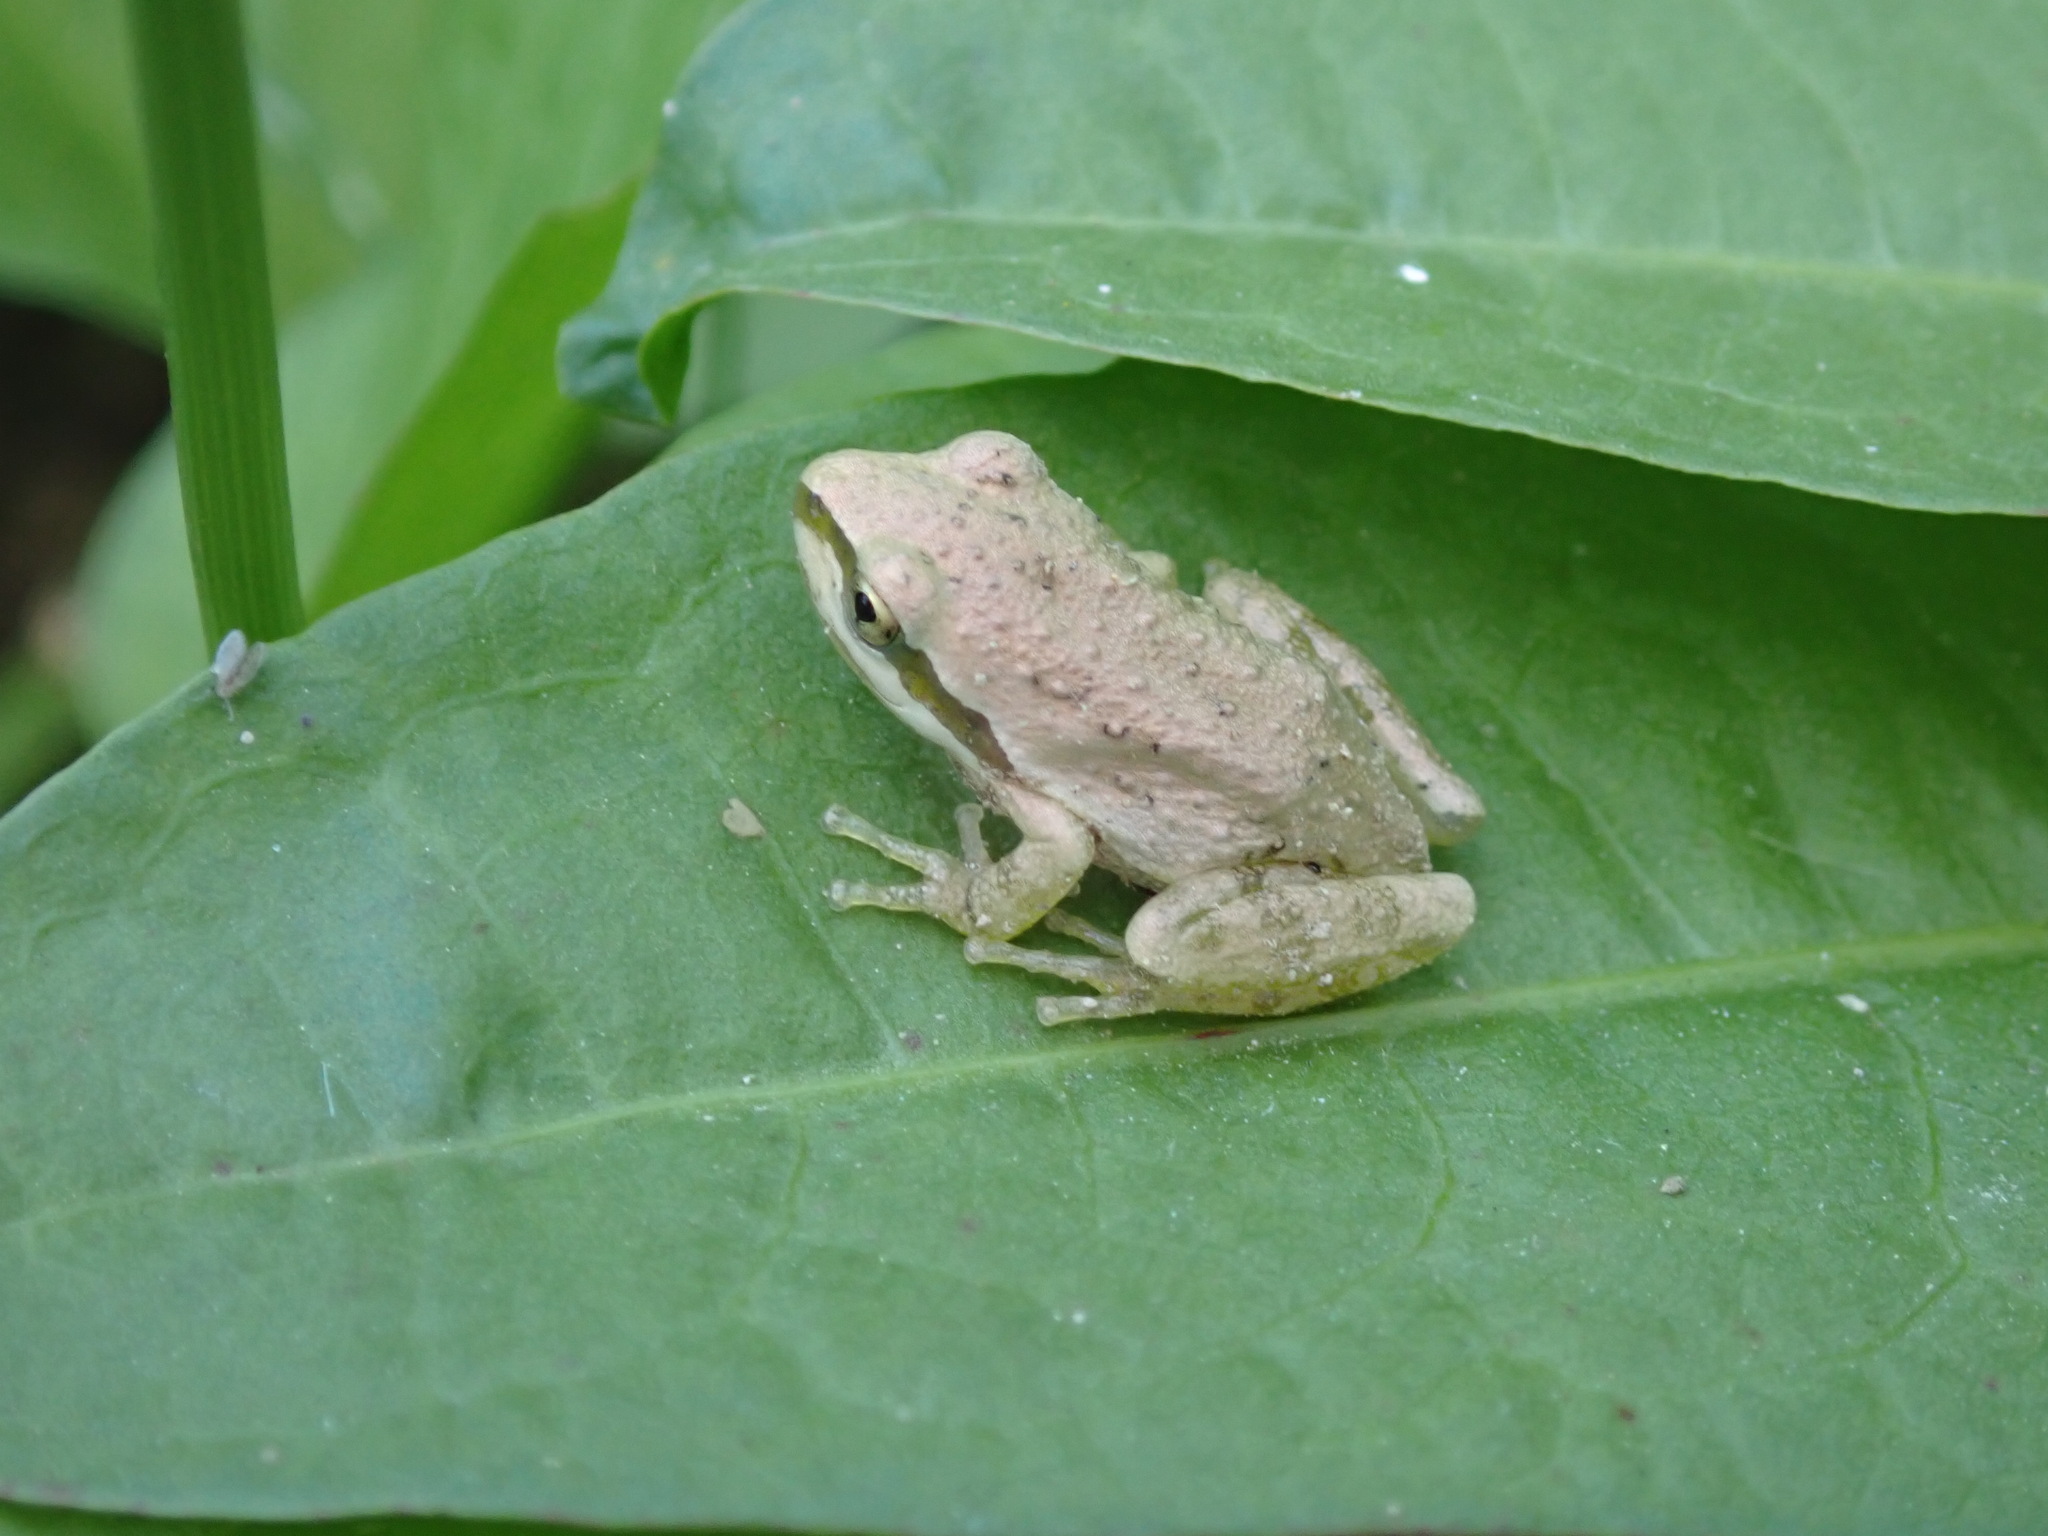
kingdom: Animalia
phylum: Chordata
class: Amphibia
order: Anura
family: Hylidae
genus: Pseudacris
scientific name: Pseudacris regilla
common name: Pacific chorus frog
